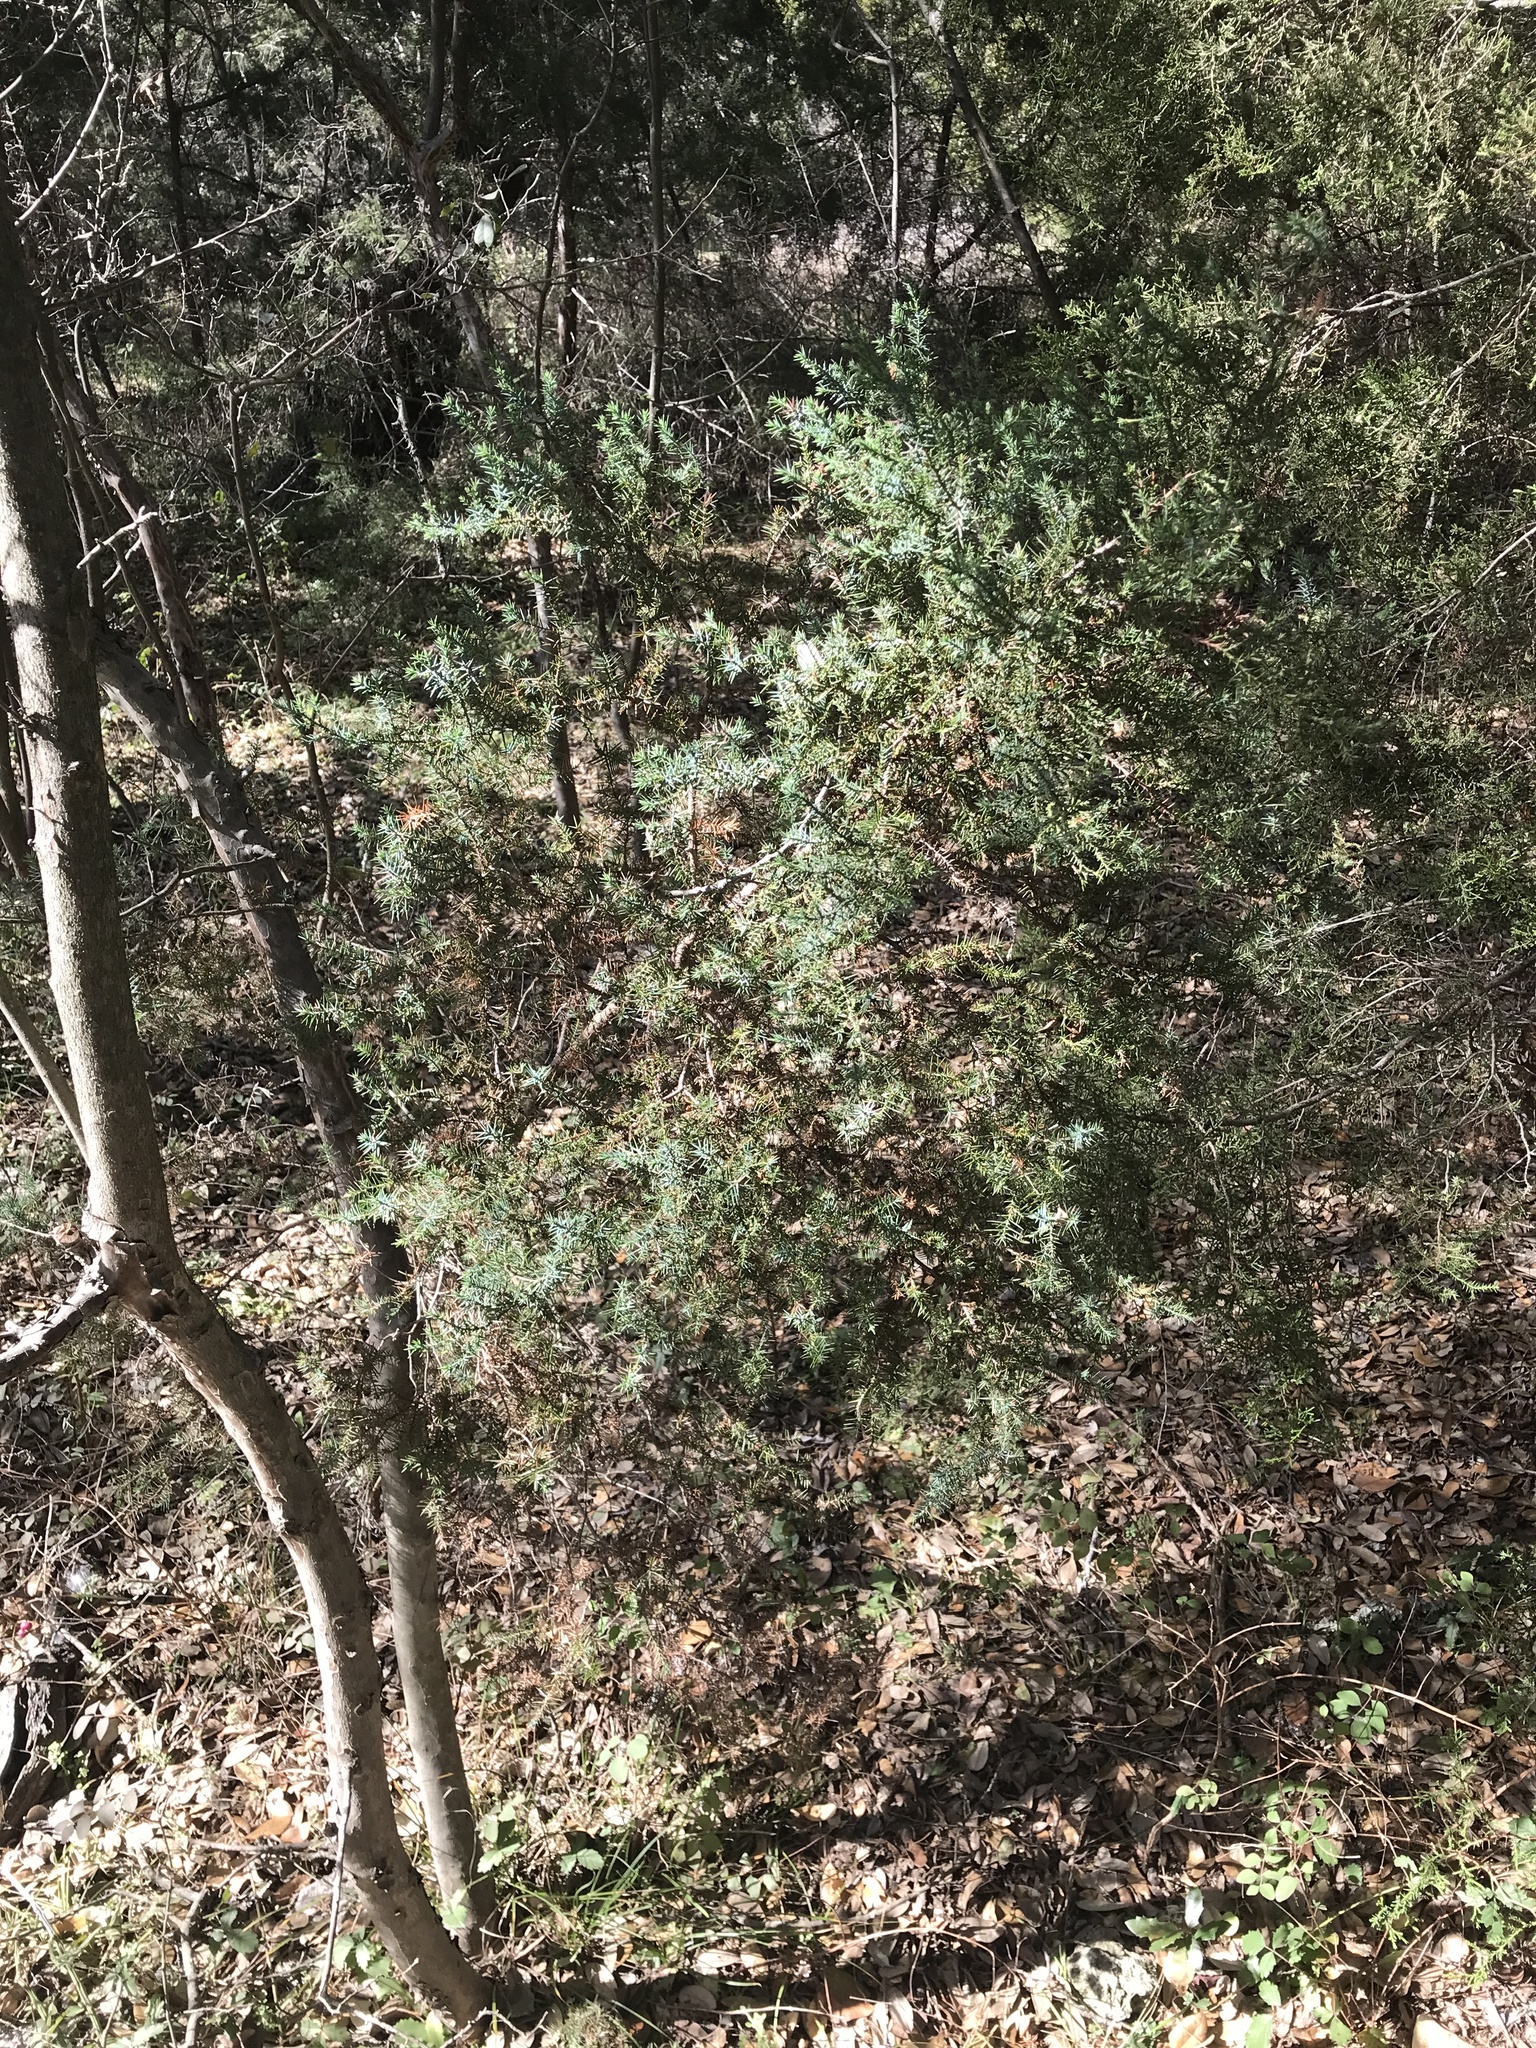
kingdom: Plantae
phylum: Tracheophyta
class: Pinopsida
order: Pinales
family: Cupressaceae
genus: Juniperus
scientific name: Juniperus ashei
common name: Mexican juniper
